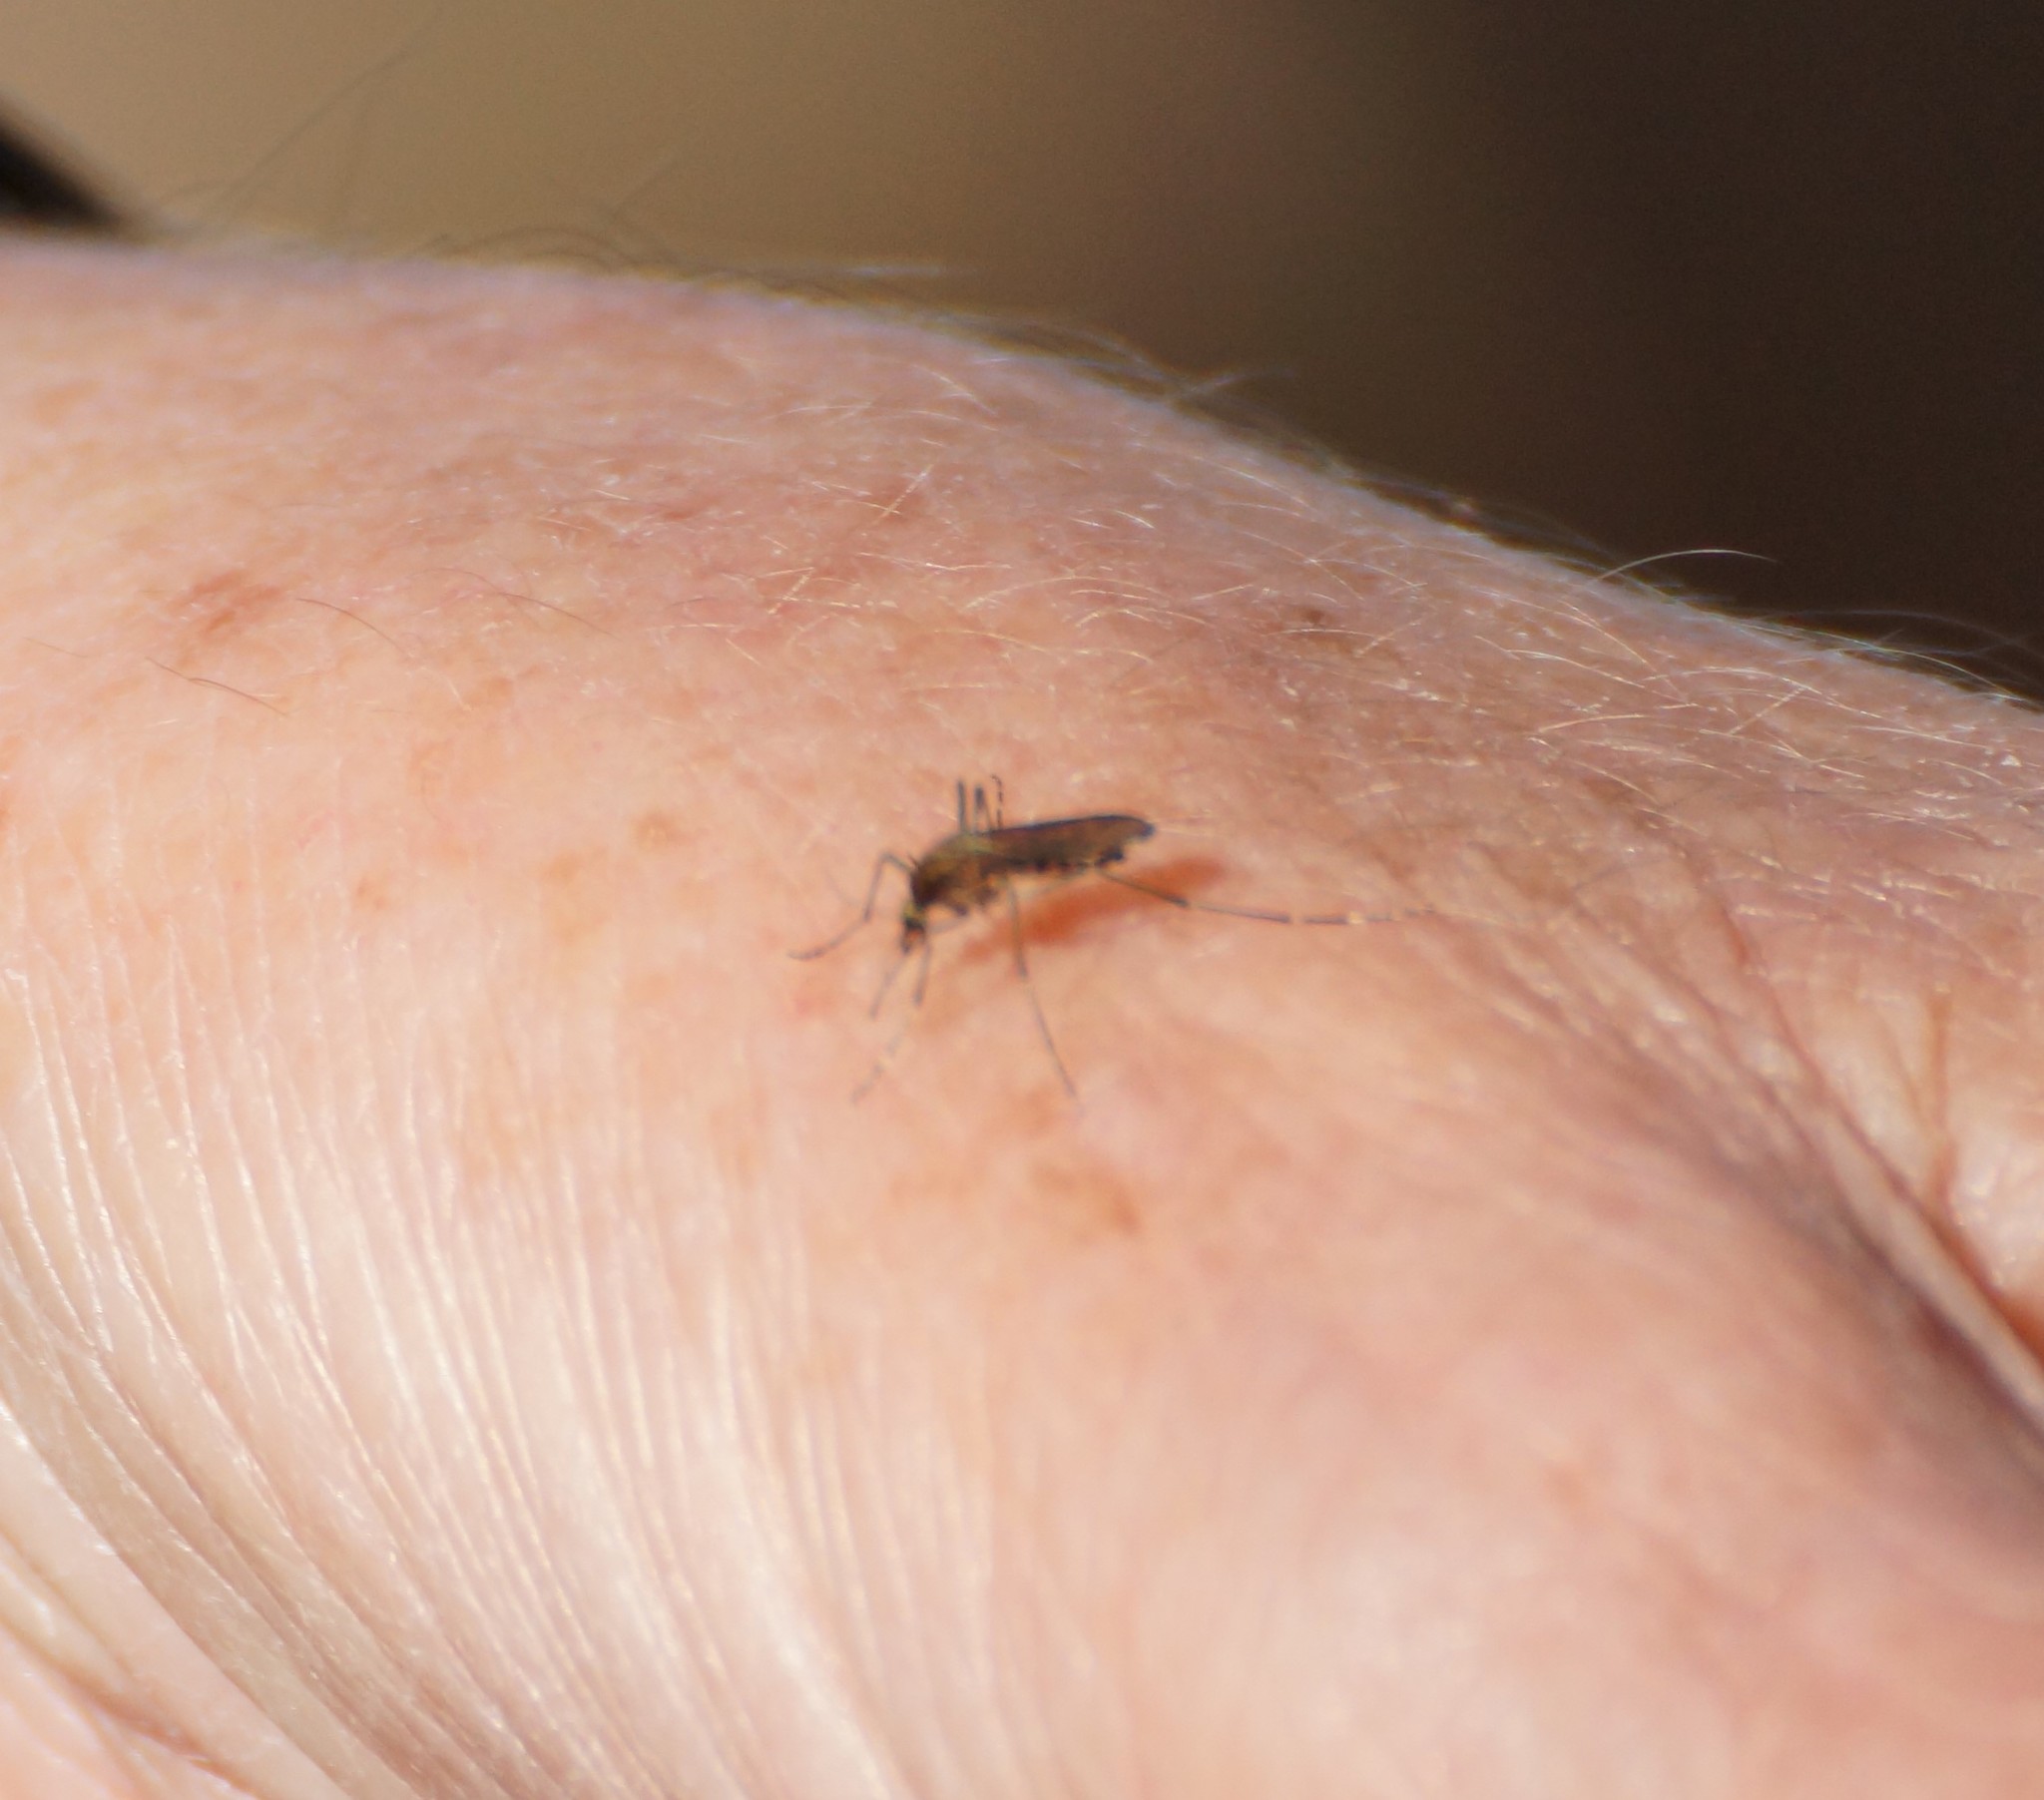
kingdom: Animalia
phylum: Arthropoda
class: Insecta
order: Diptera
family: Culicidae
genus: Aedes
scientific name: Aedes
